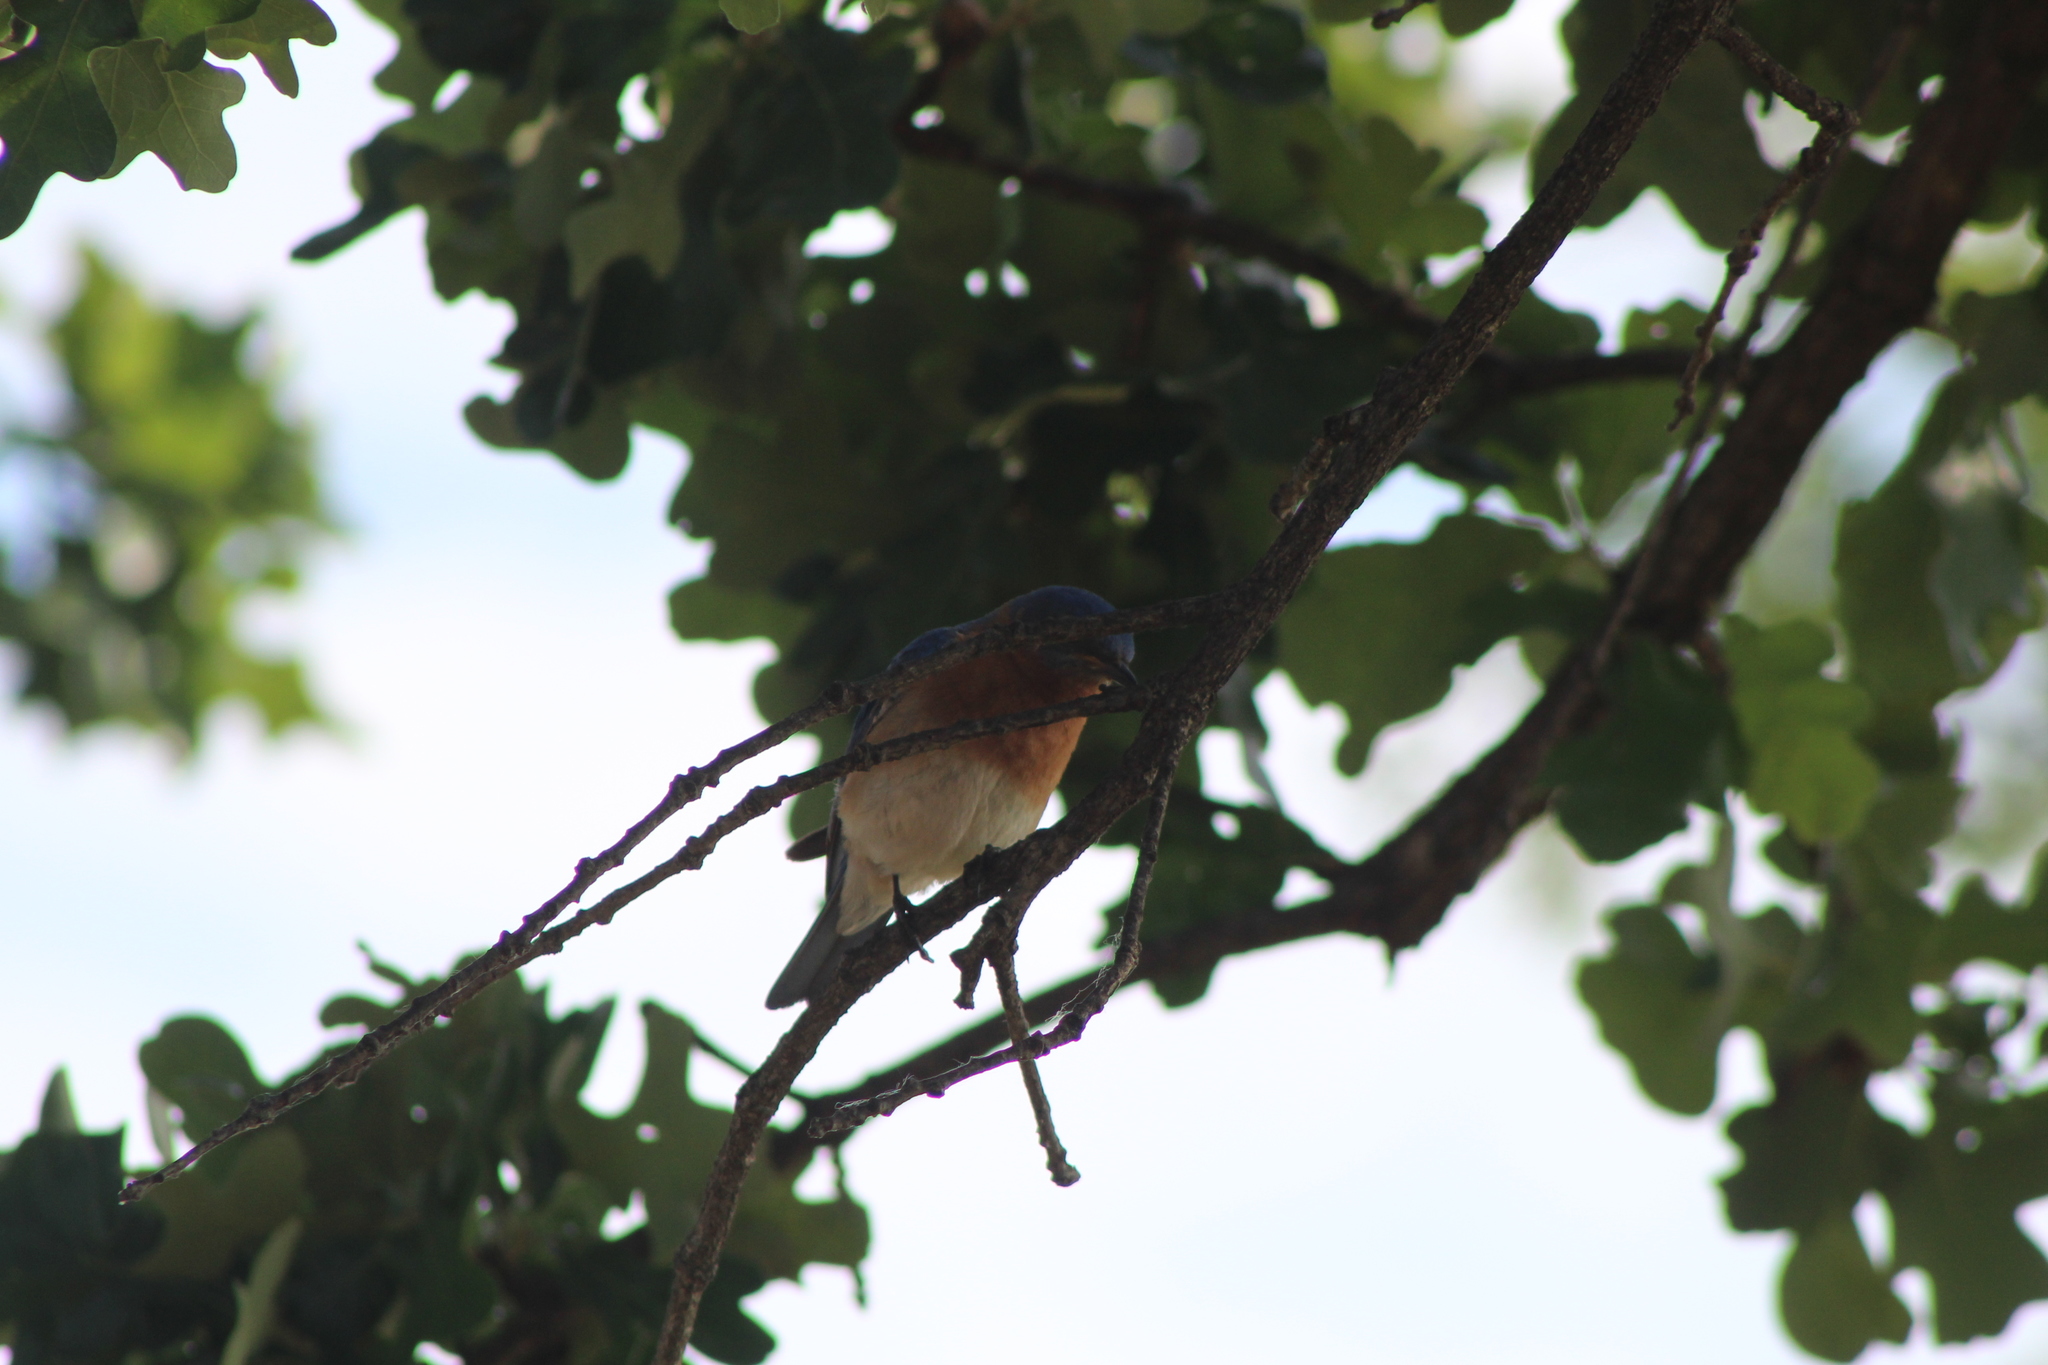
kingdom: Animalia
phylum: Chordata
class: Aves
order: Passeriformes
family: Turdidae
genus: Sialia
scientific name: Sialia sialis
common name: Eastern bluebird
